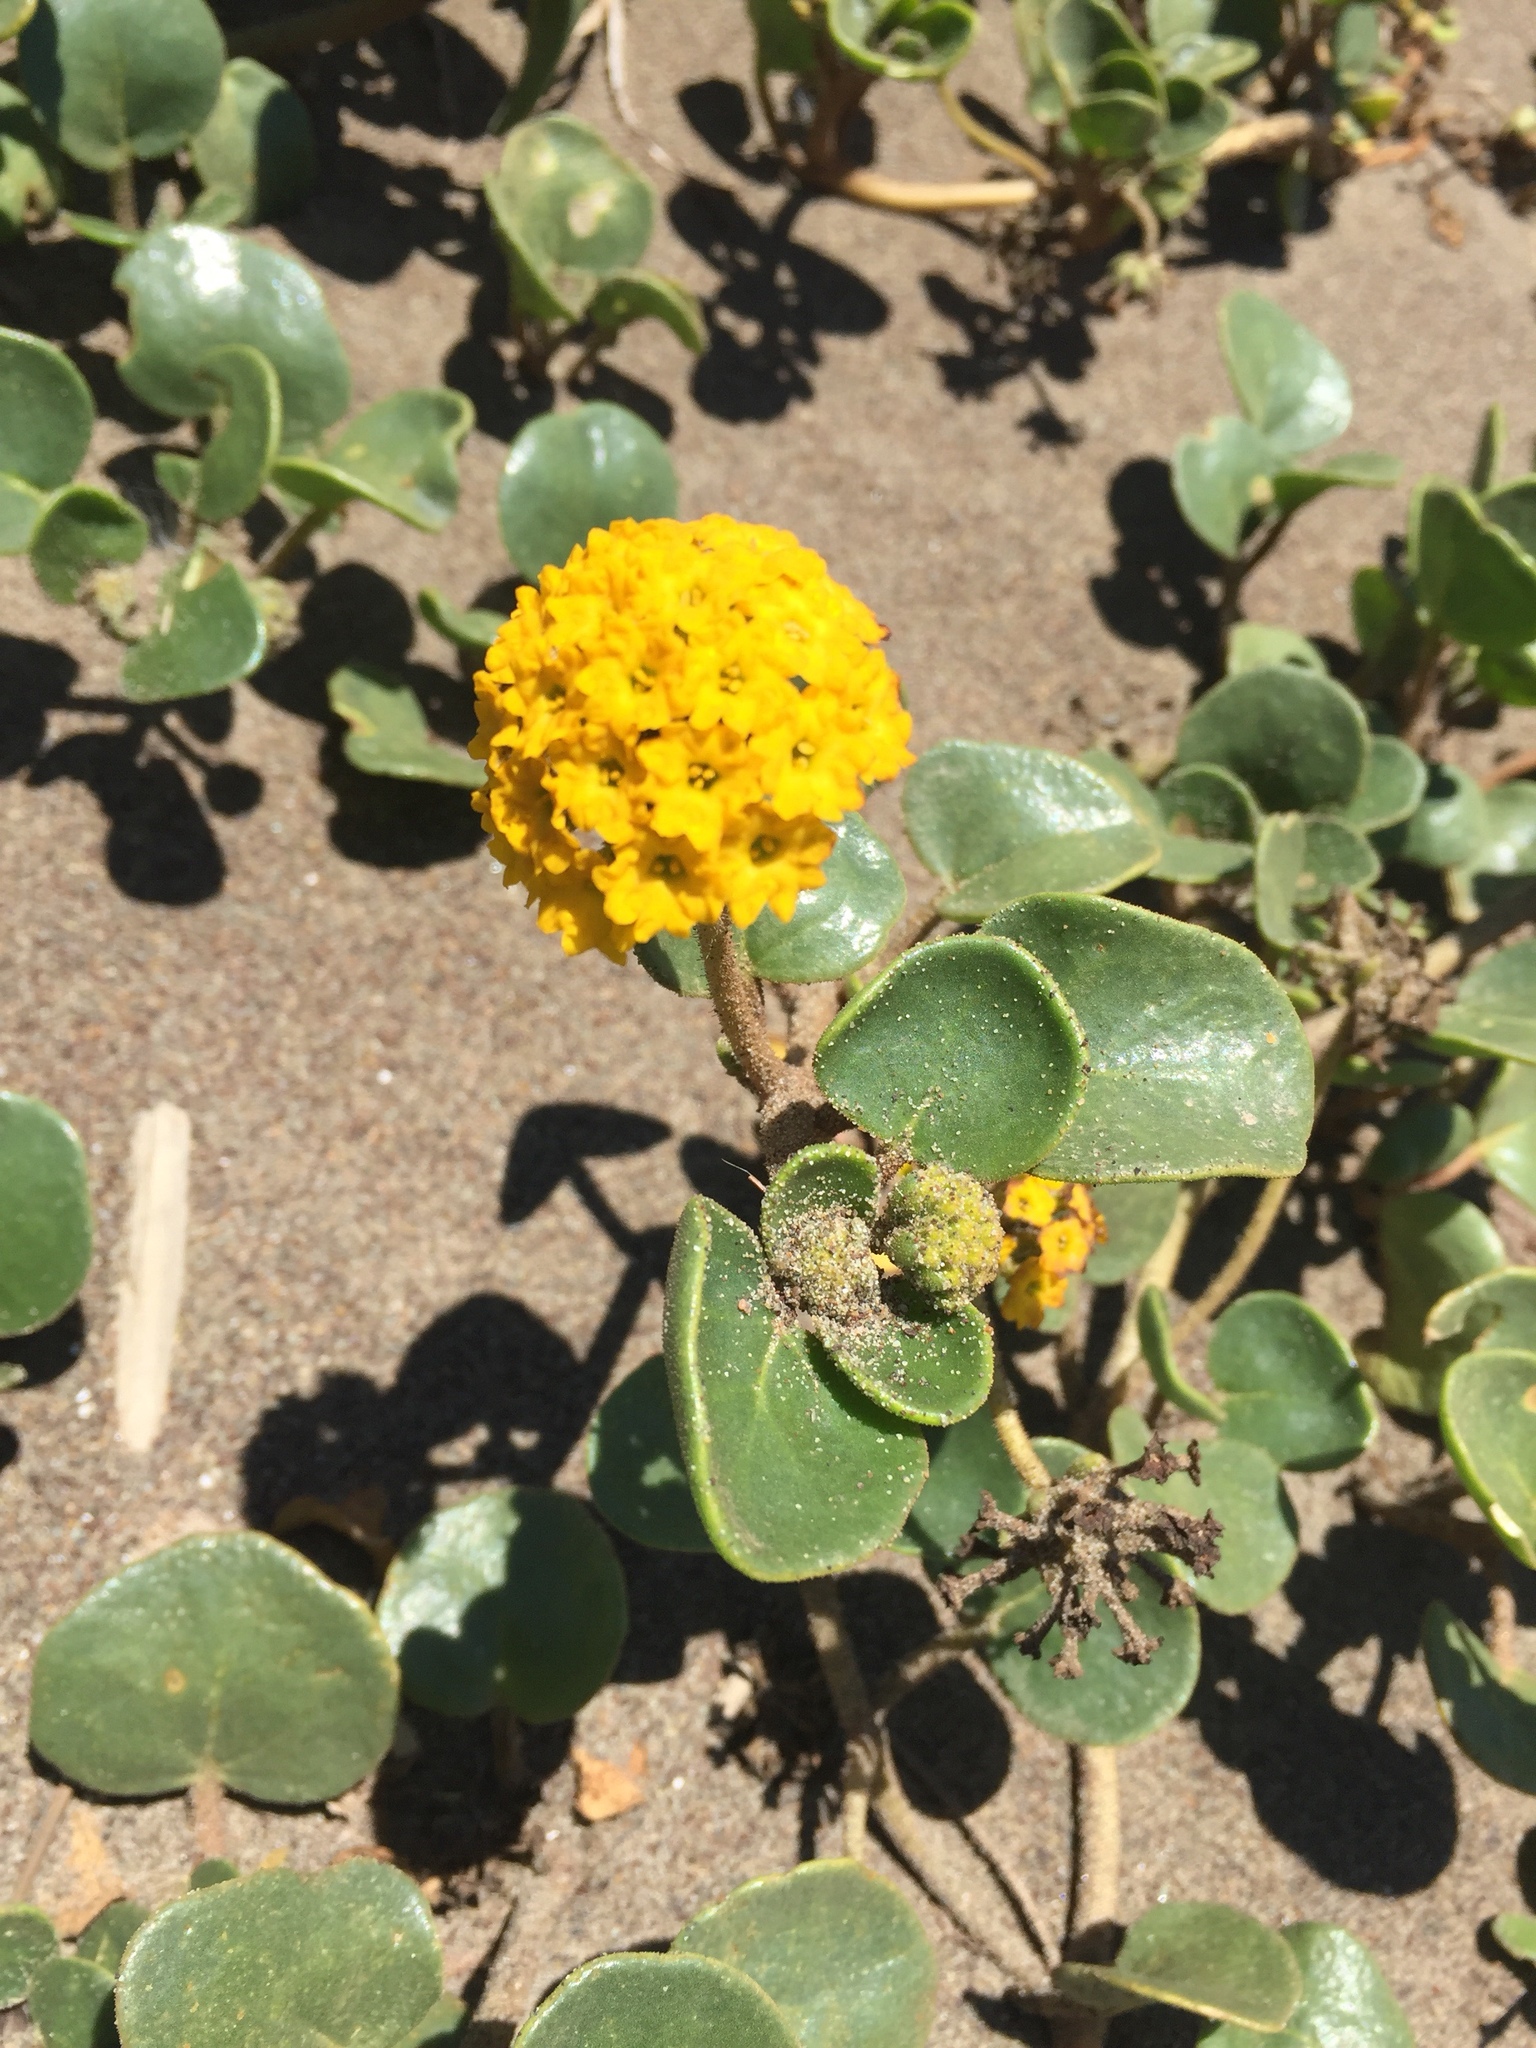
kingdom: Plantae
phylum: Tracheophyta
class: Magnoliopsida
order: Caryophyllales
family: Nyctaginaceae
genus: Abronia
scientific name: Abronia latifolia
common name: Yellow sand-verbena
